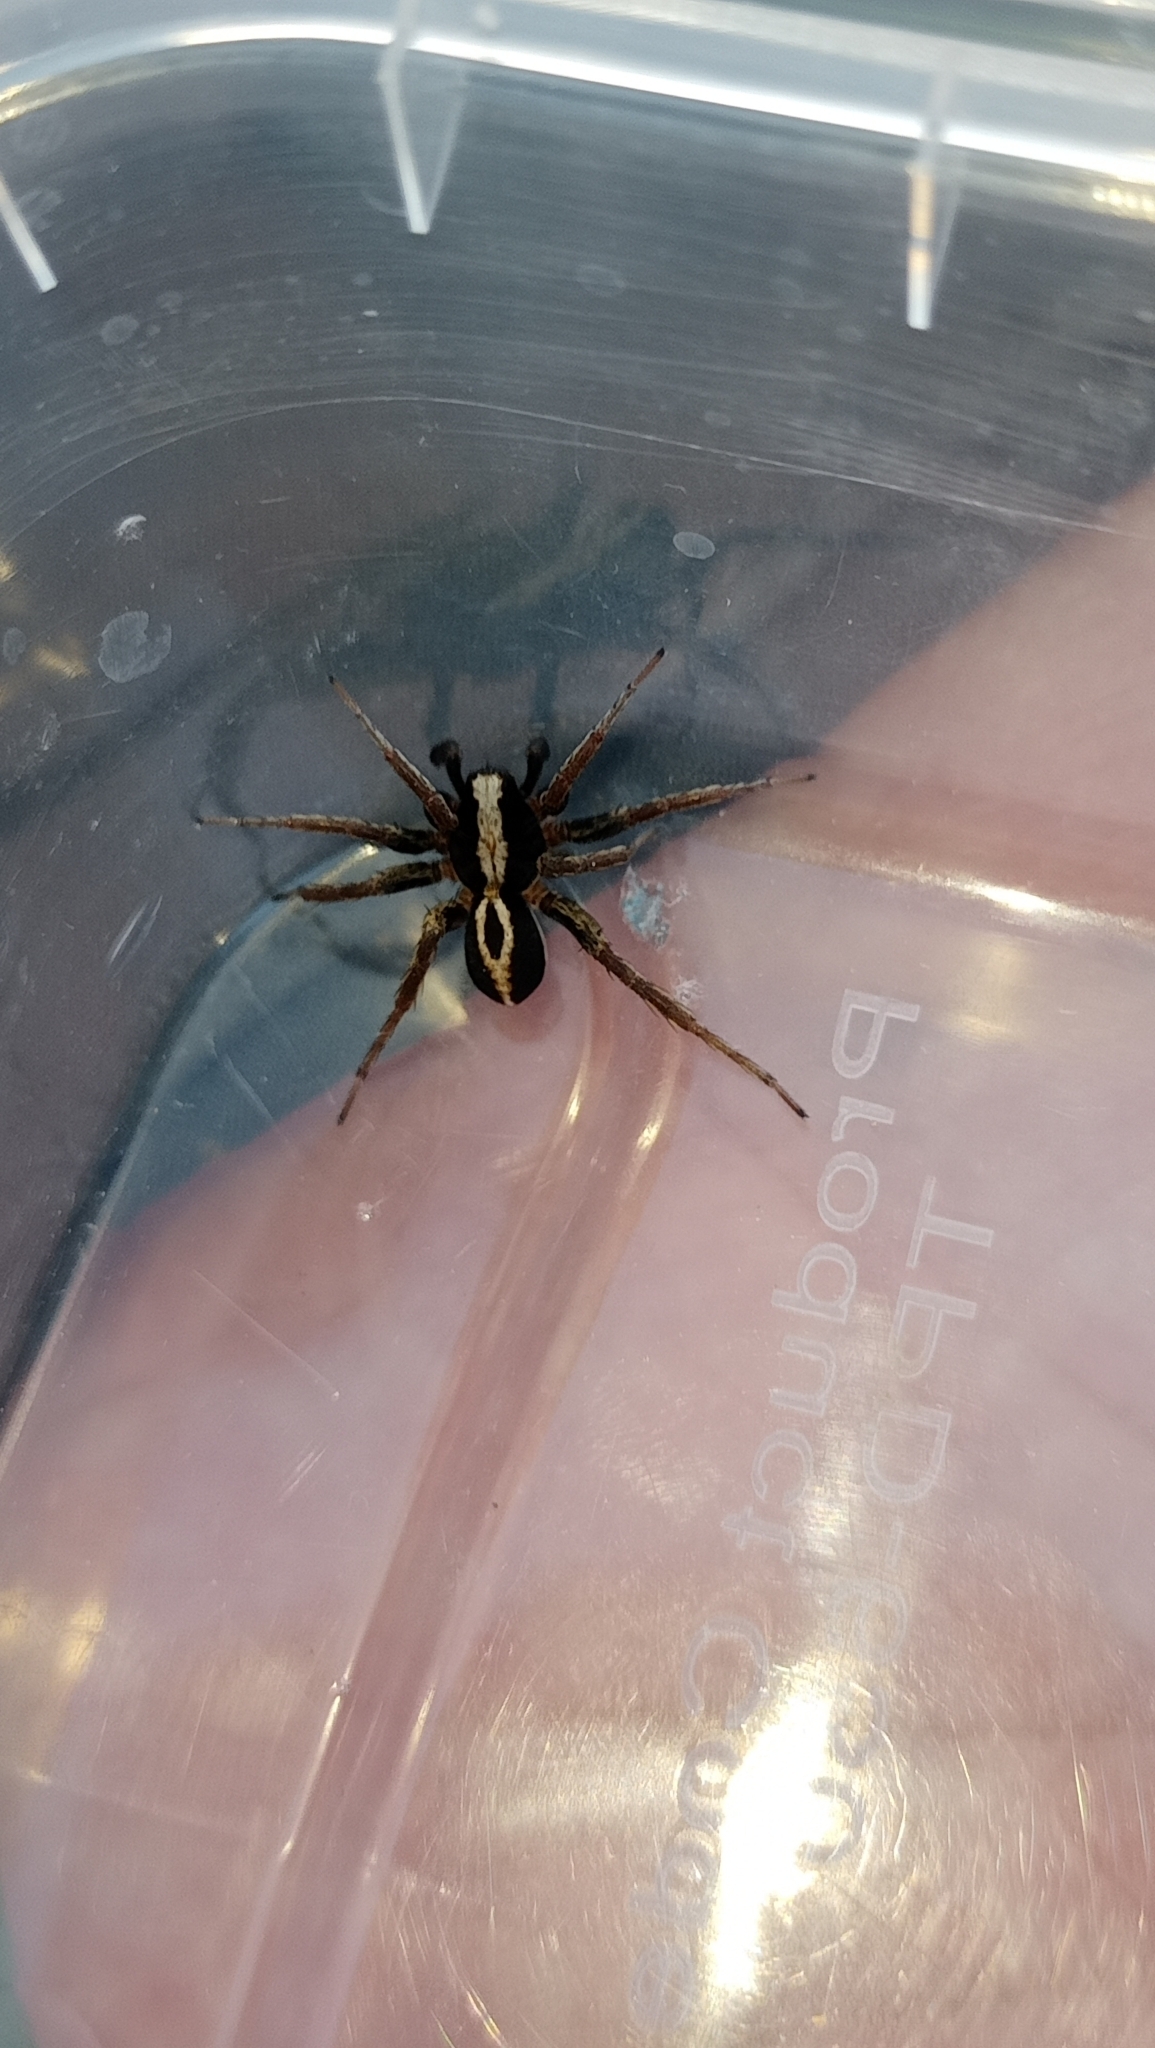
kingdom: Animalia
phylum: Arthropoda
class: Arachnida
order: Araneae
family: Lycosidae
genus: Alopecosa
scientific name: Alopecosa albofasciata
